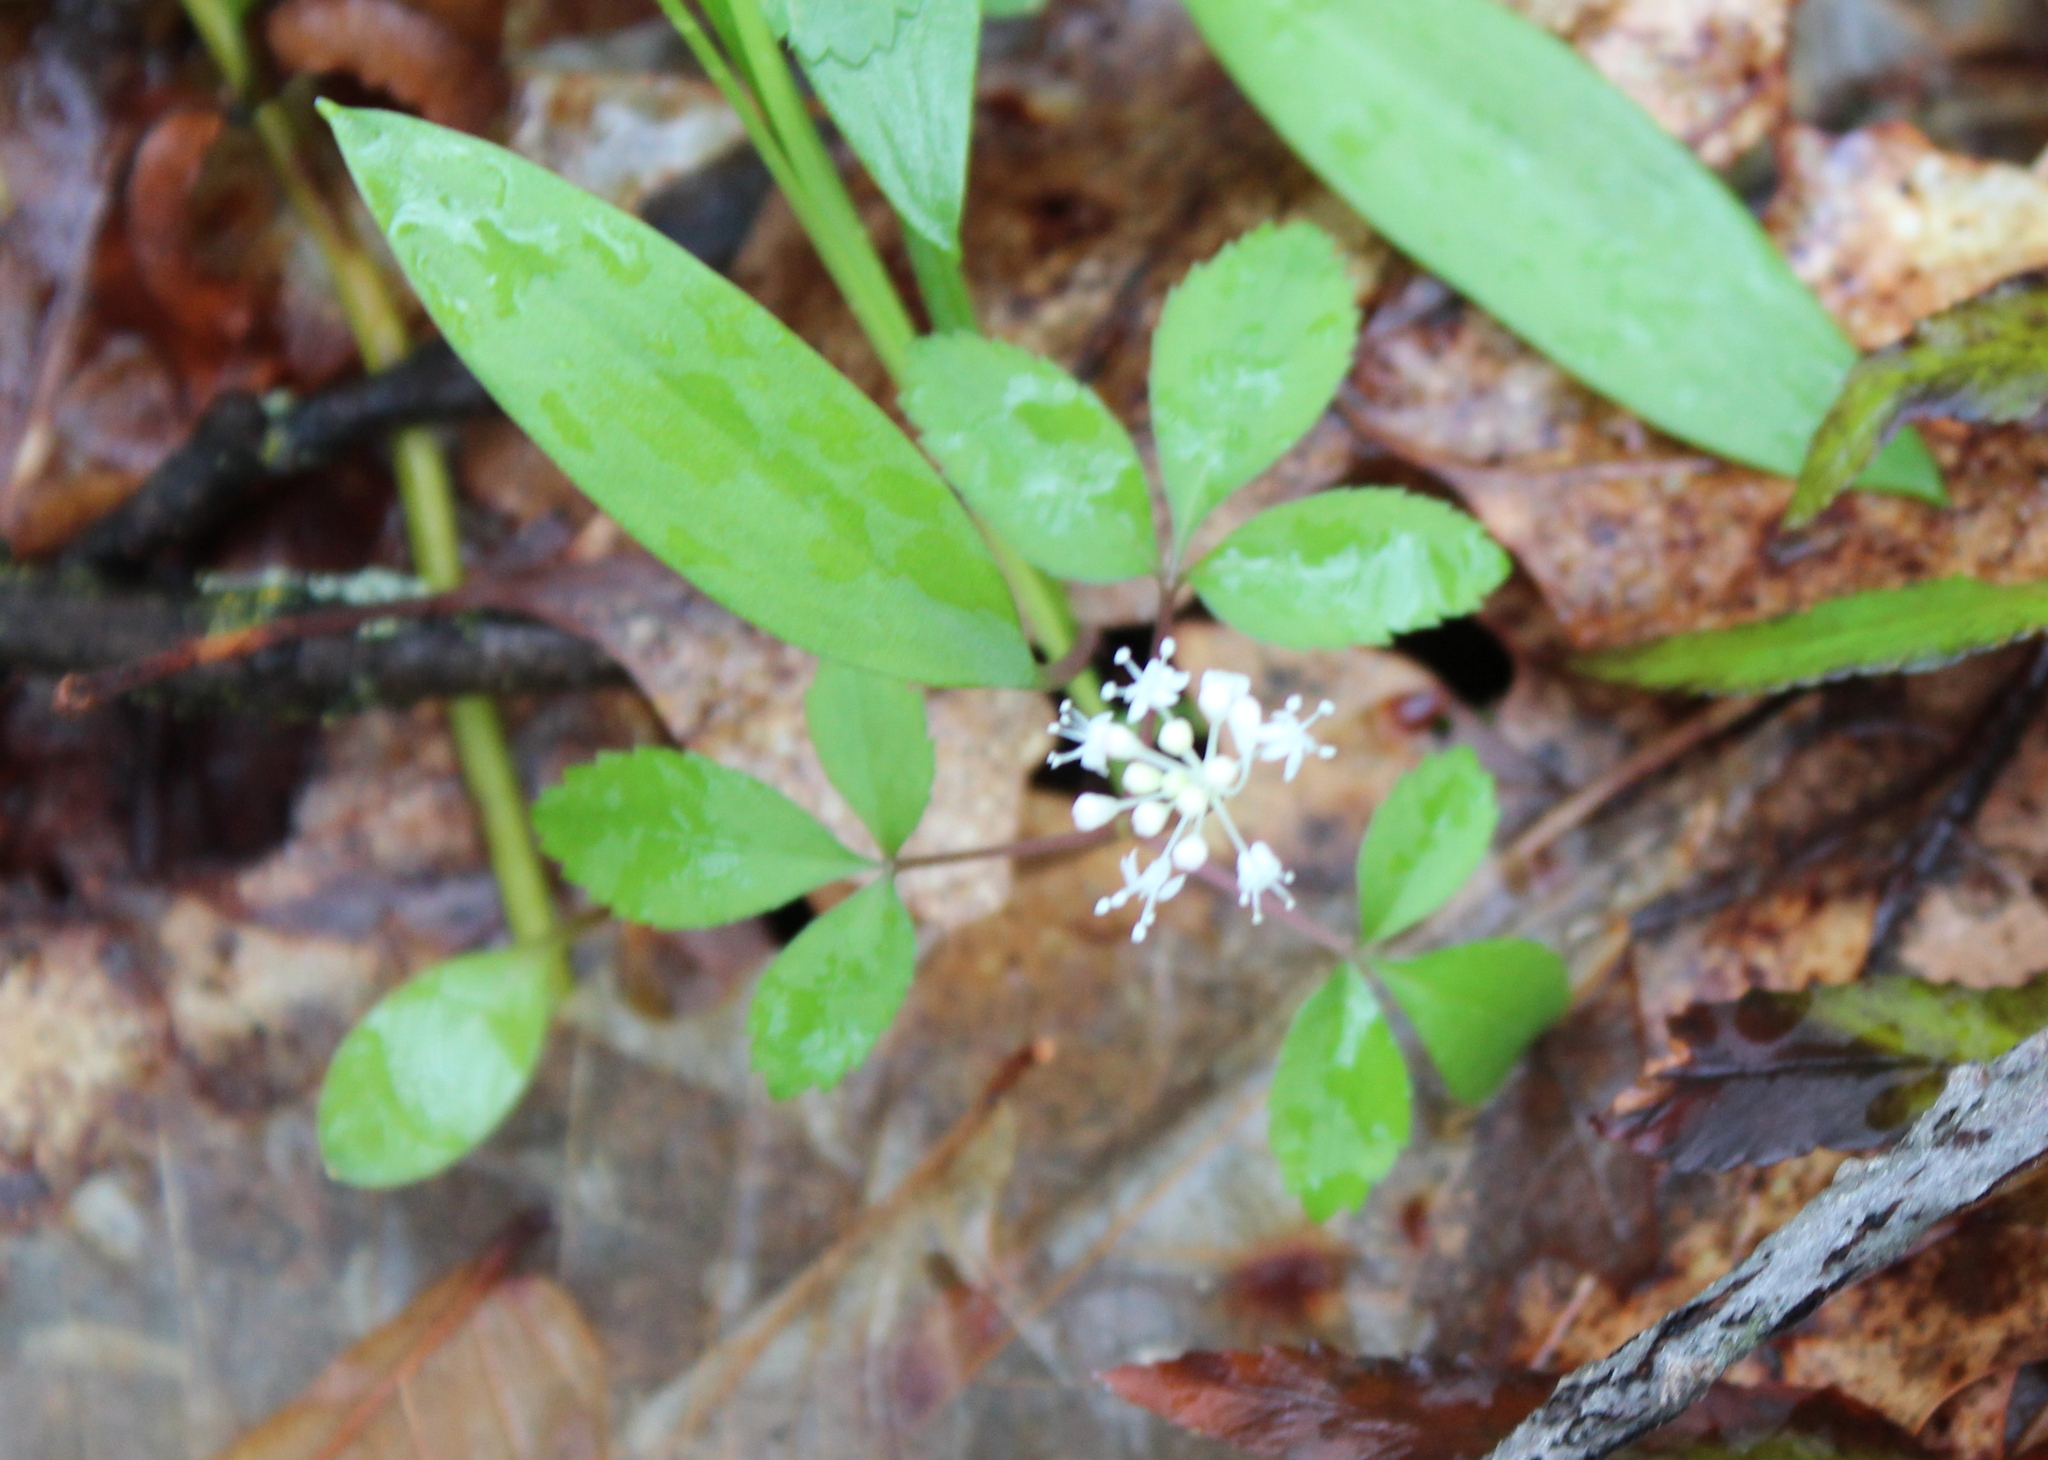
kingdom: Plantae
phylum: Tracheophyta
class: Magnoliopsida
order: Apiales
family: Araliaceae
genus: Panax
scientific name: Panax trifolius
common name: Dwarf ginseng
